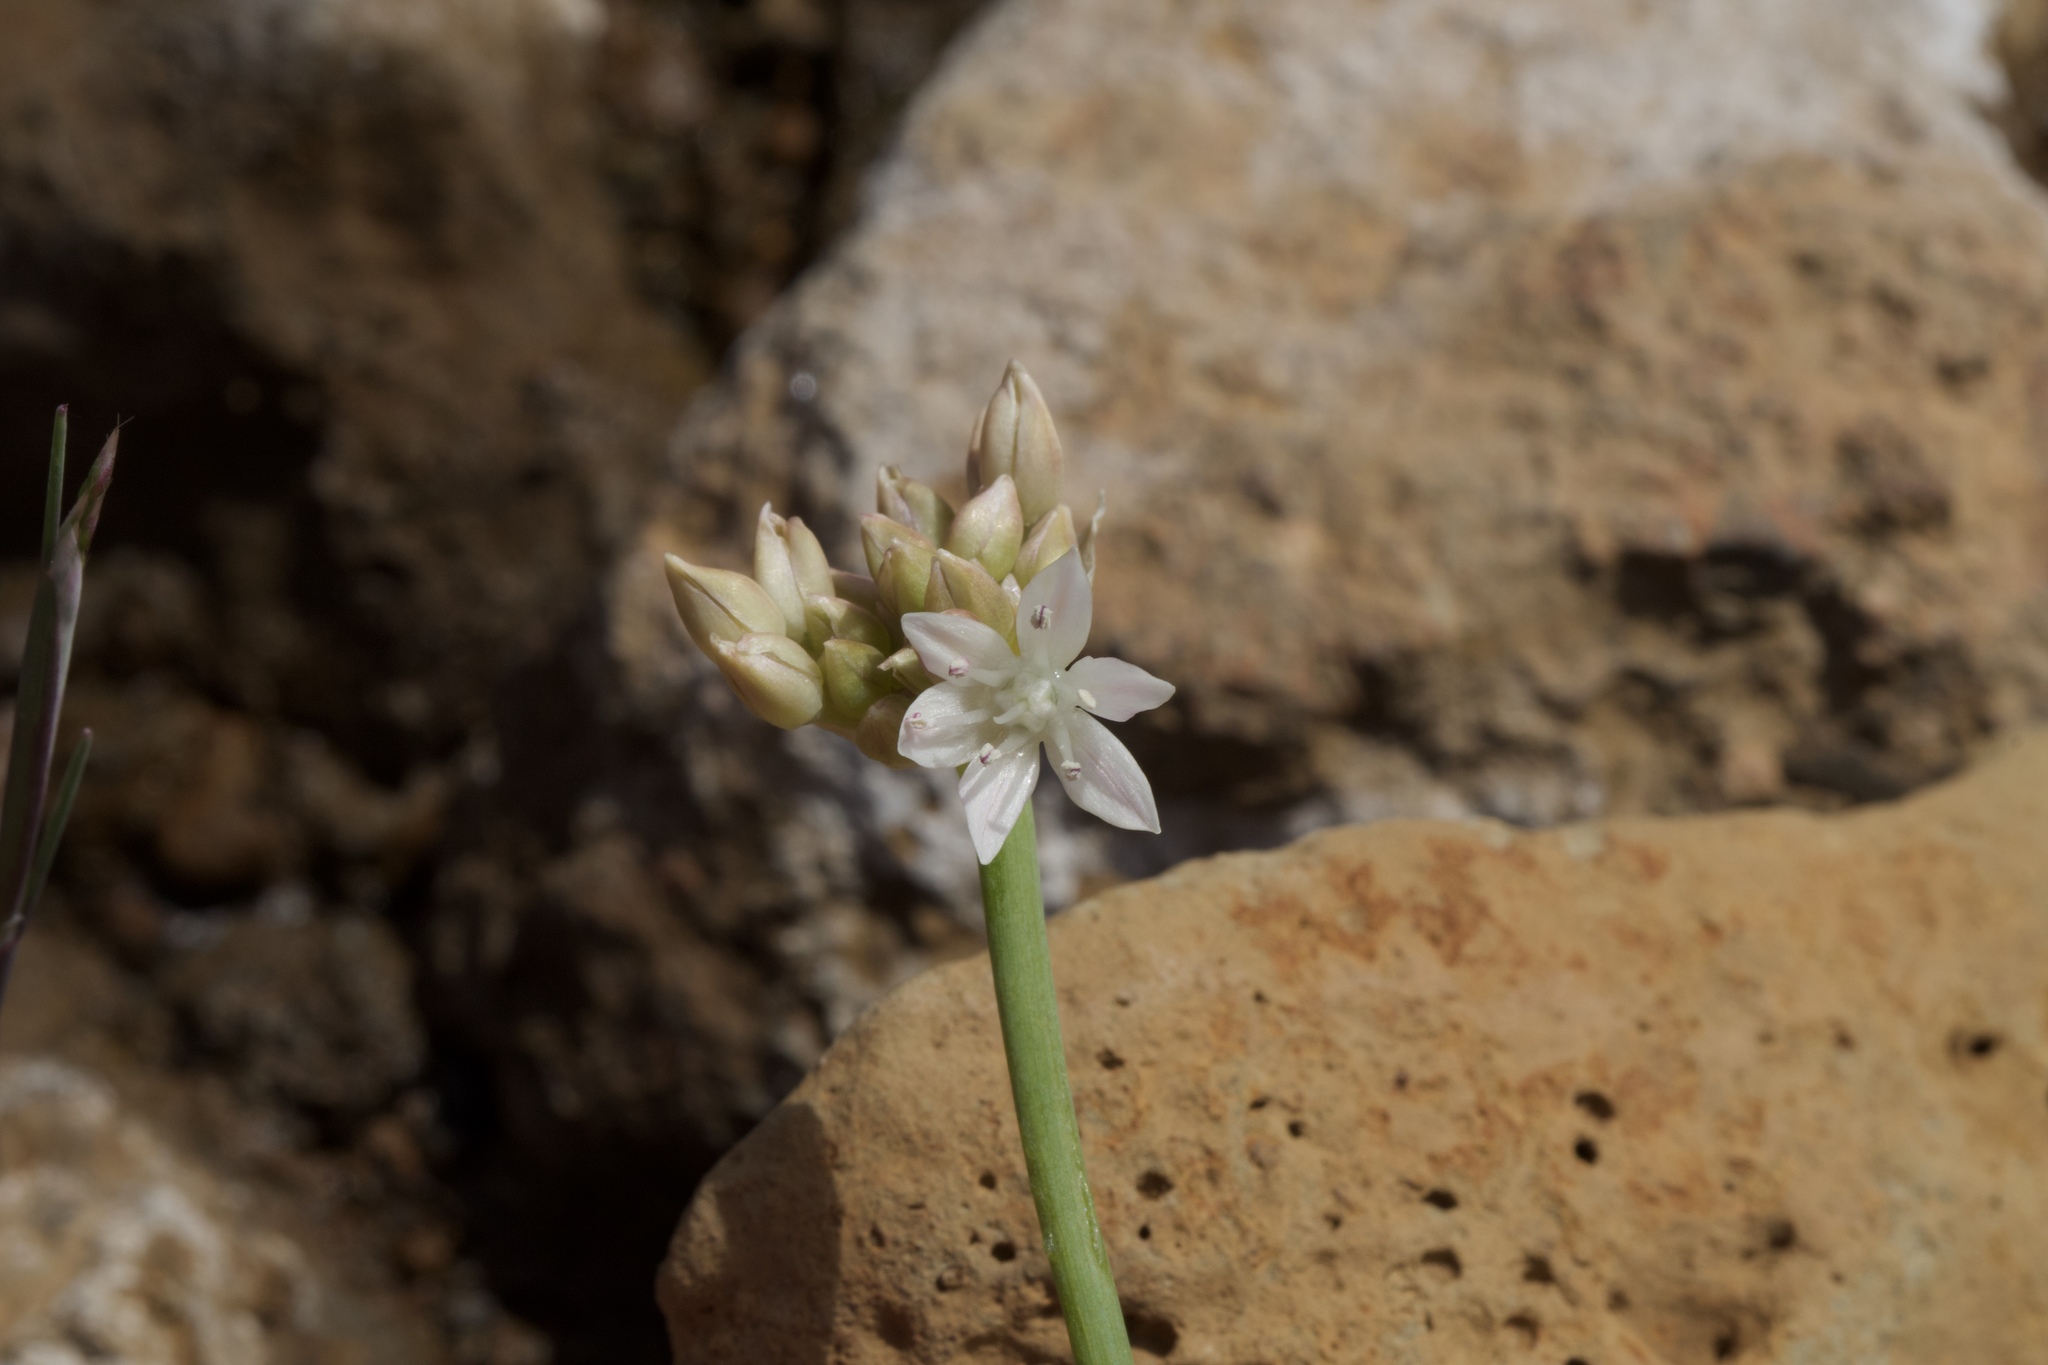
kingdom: Plantae
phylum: Tracheophyta
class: Liliopsida
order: Asparagales
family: Amaryllidaceae
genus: Allium
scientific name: Allium amplectens
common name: Narrow-leaved onion
